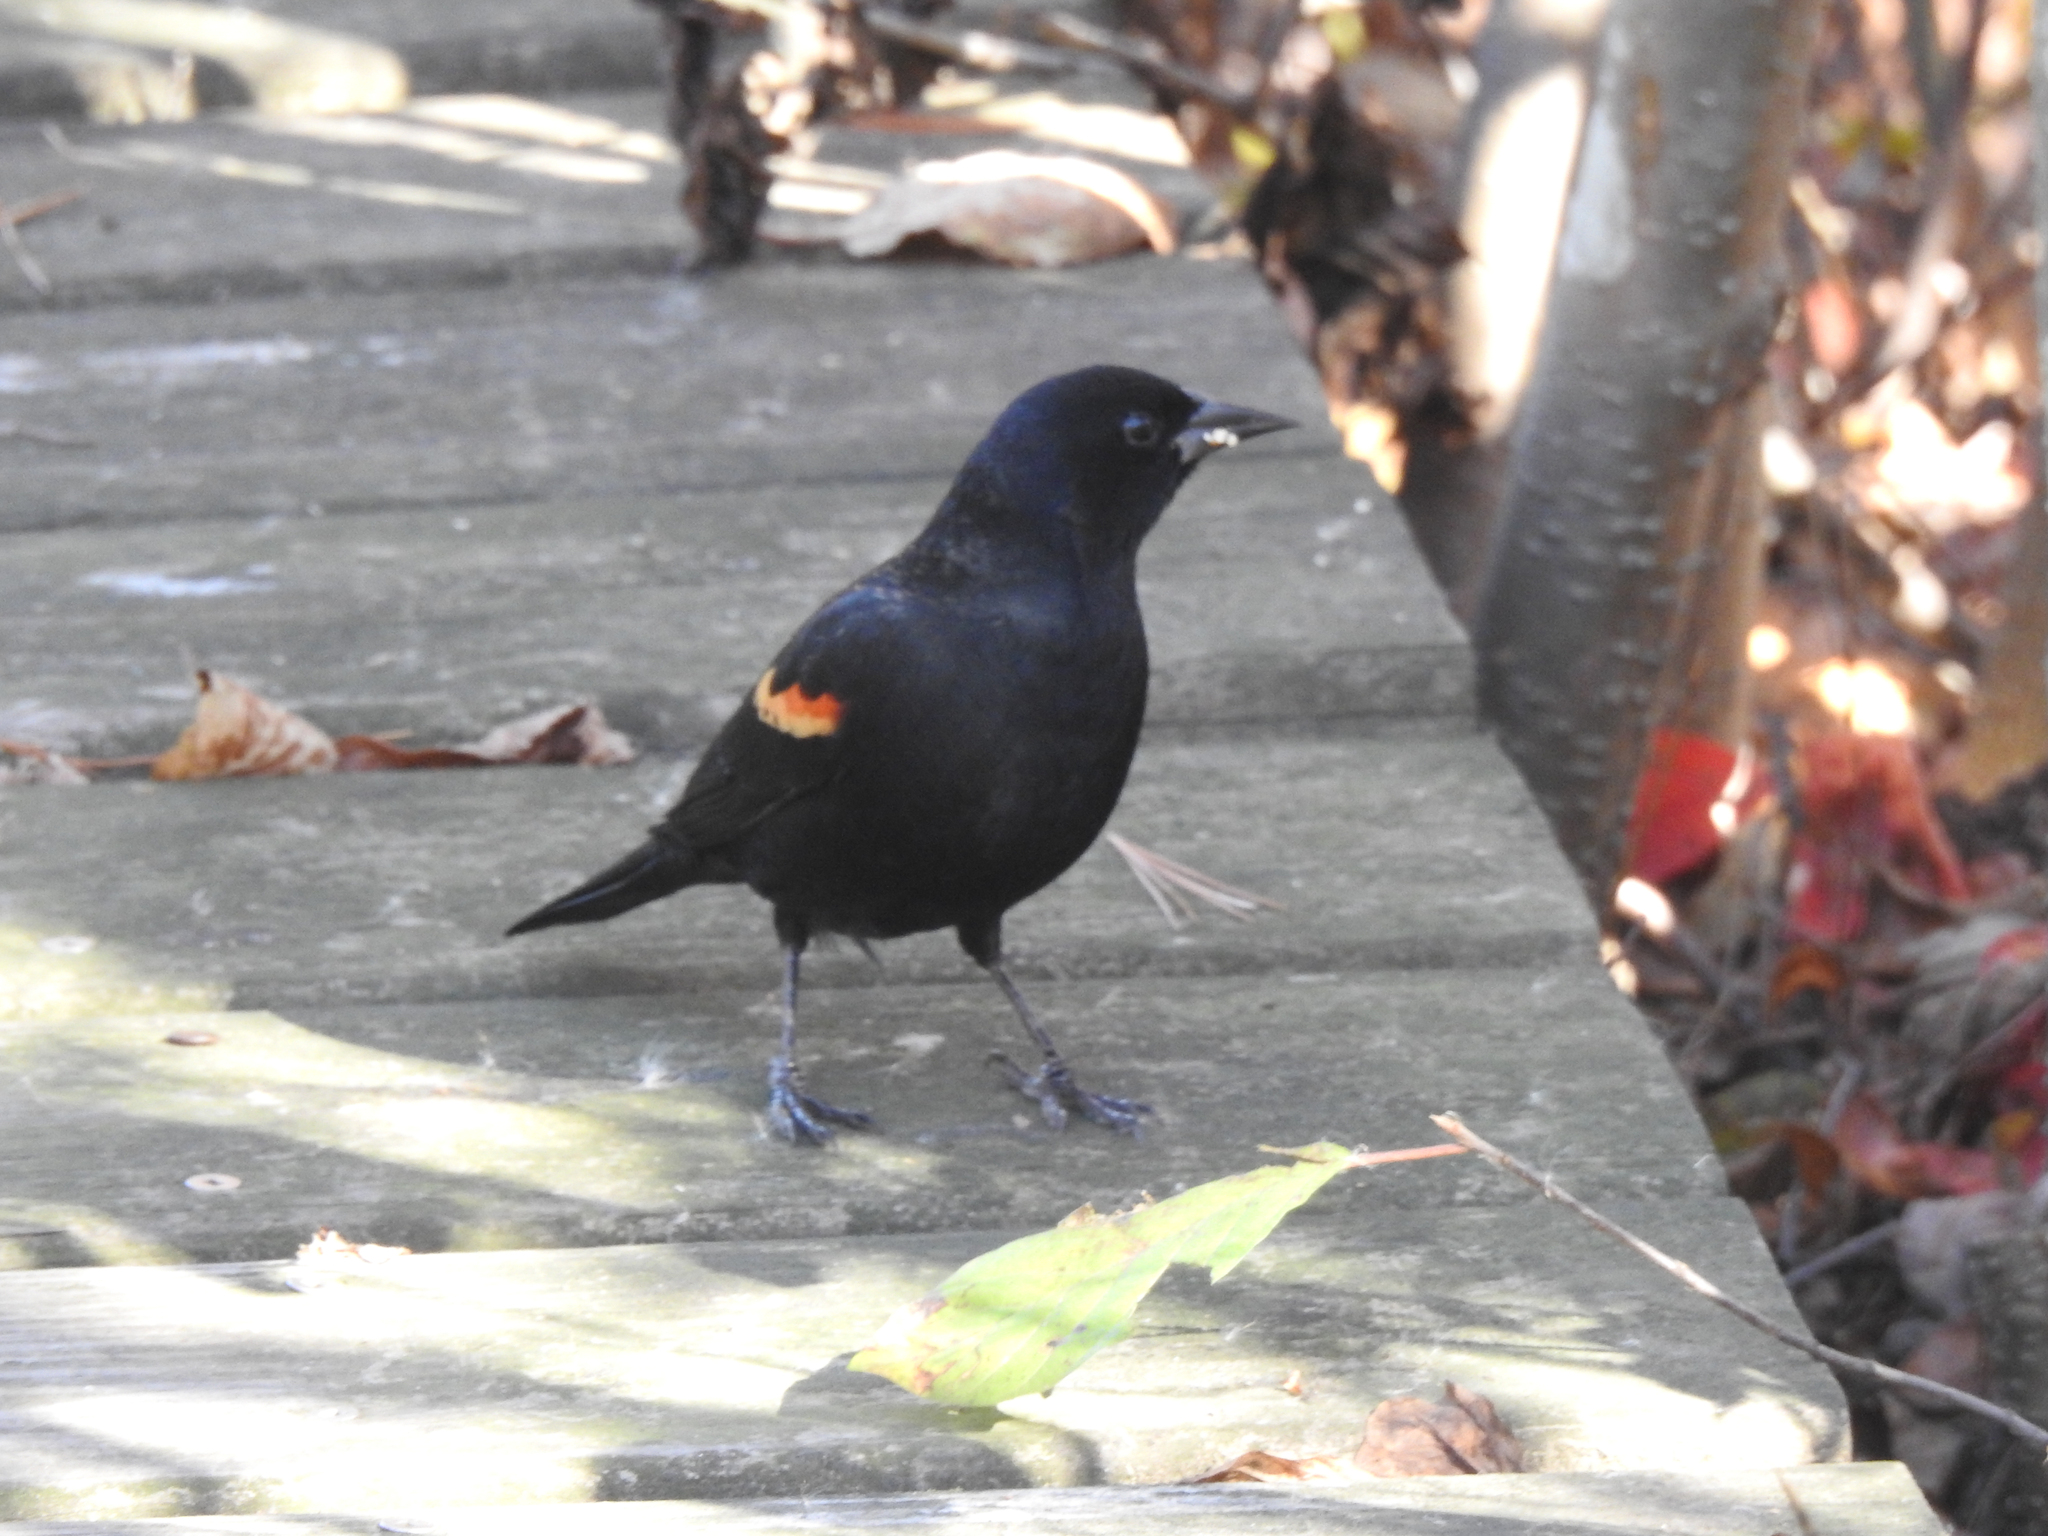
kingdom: Animalia
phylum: Chordata
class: Aves
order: Passeriformes
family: Icteridae
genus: Agelaius
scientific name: Agelaius phoeniceus
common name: Red-winged blackbird
